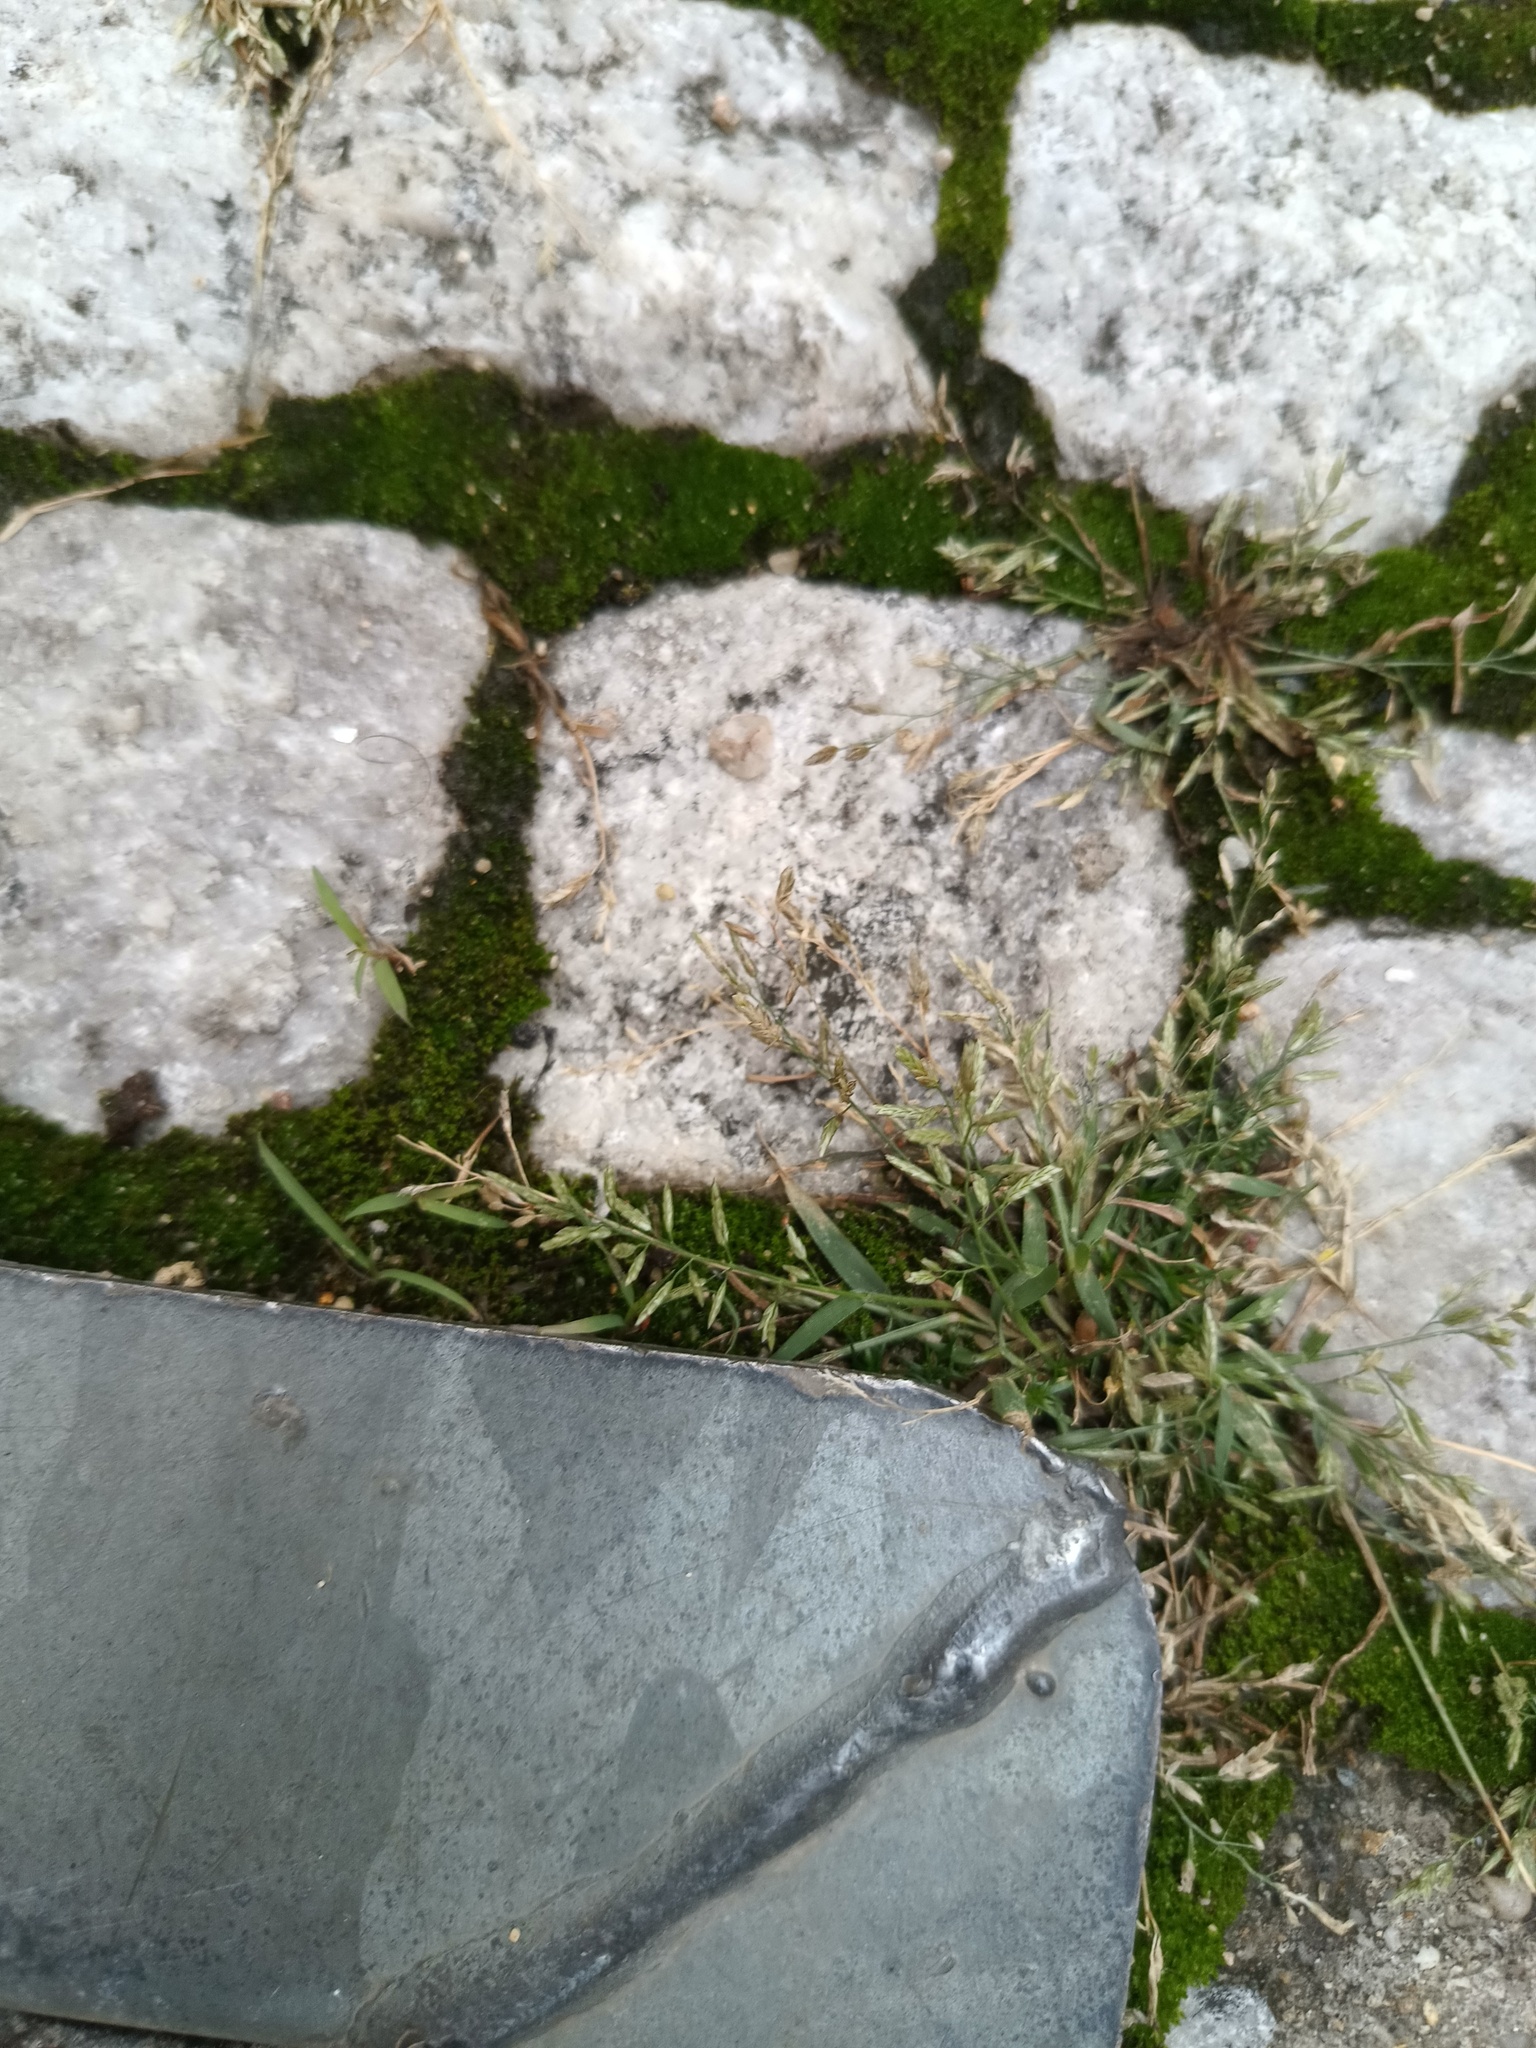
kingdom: Plantae
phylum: Tracheophyta
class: Liliopsida
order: Poales
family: Poaceae
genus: Eragrostis
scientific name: Eragrostis minor
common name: Small love-grass
